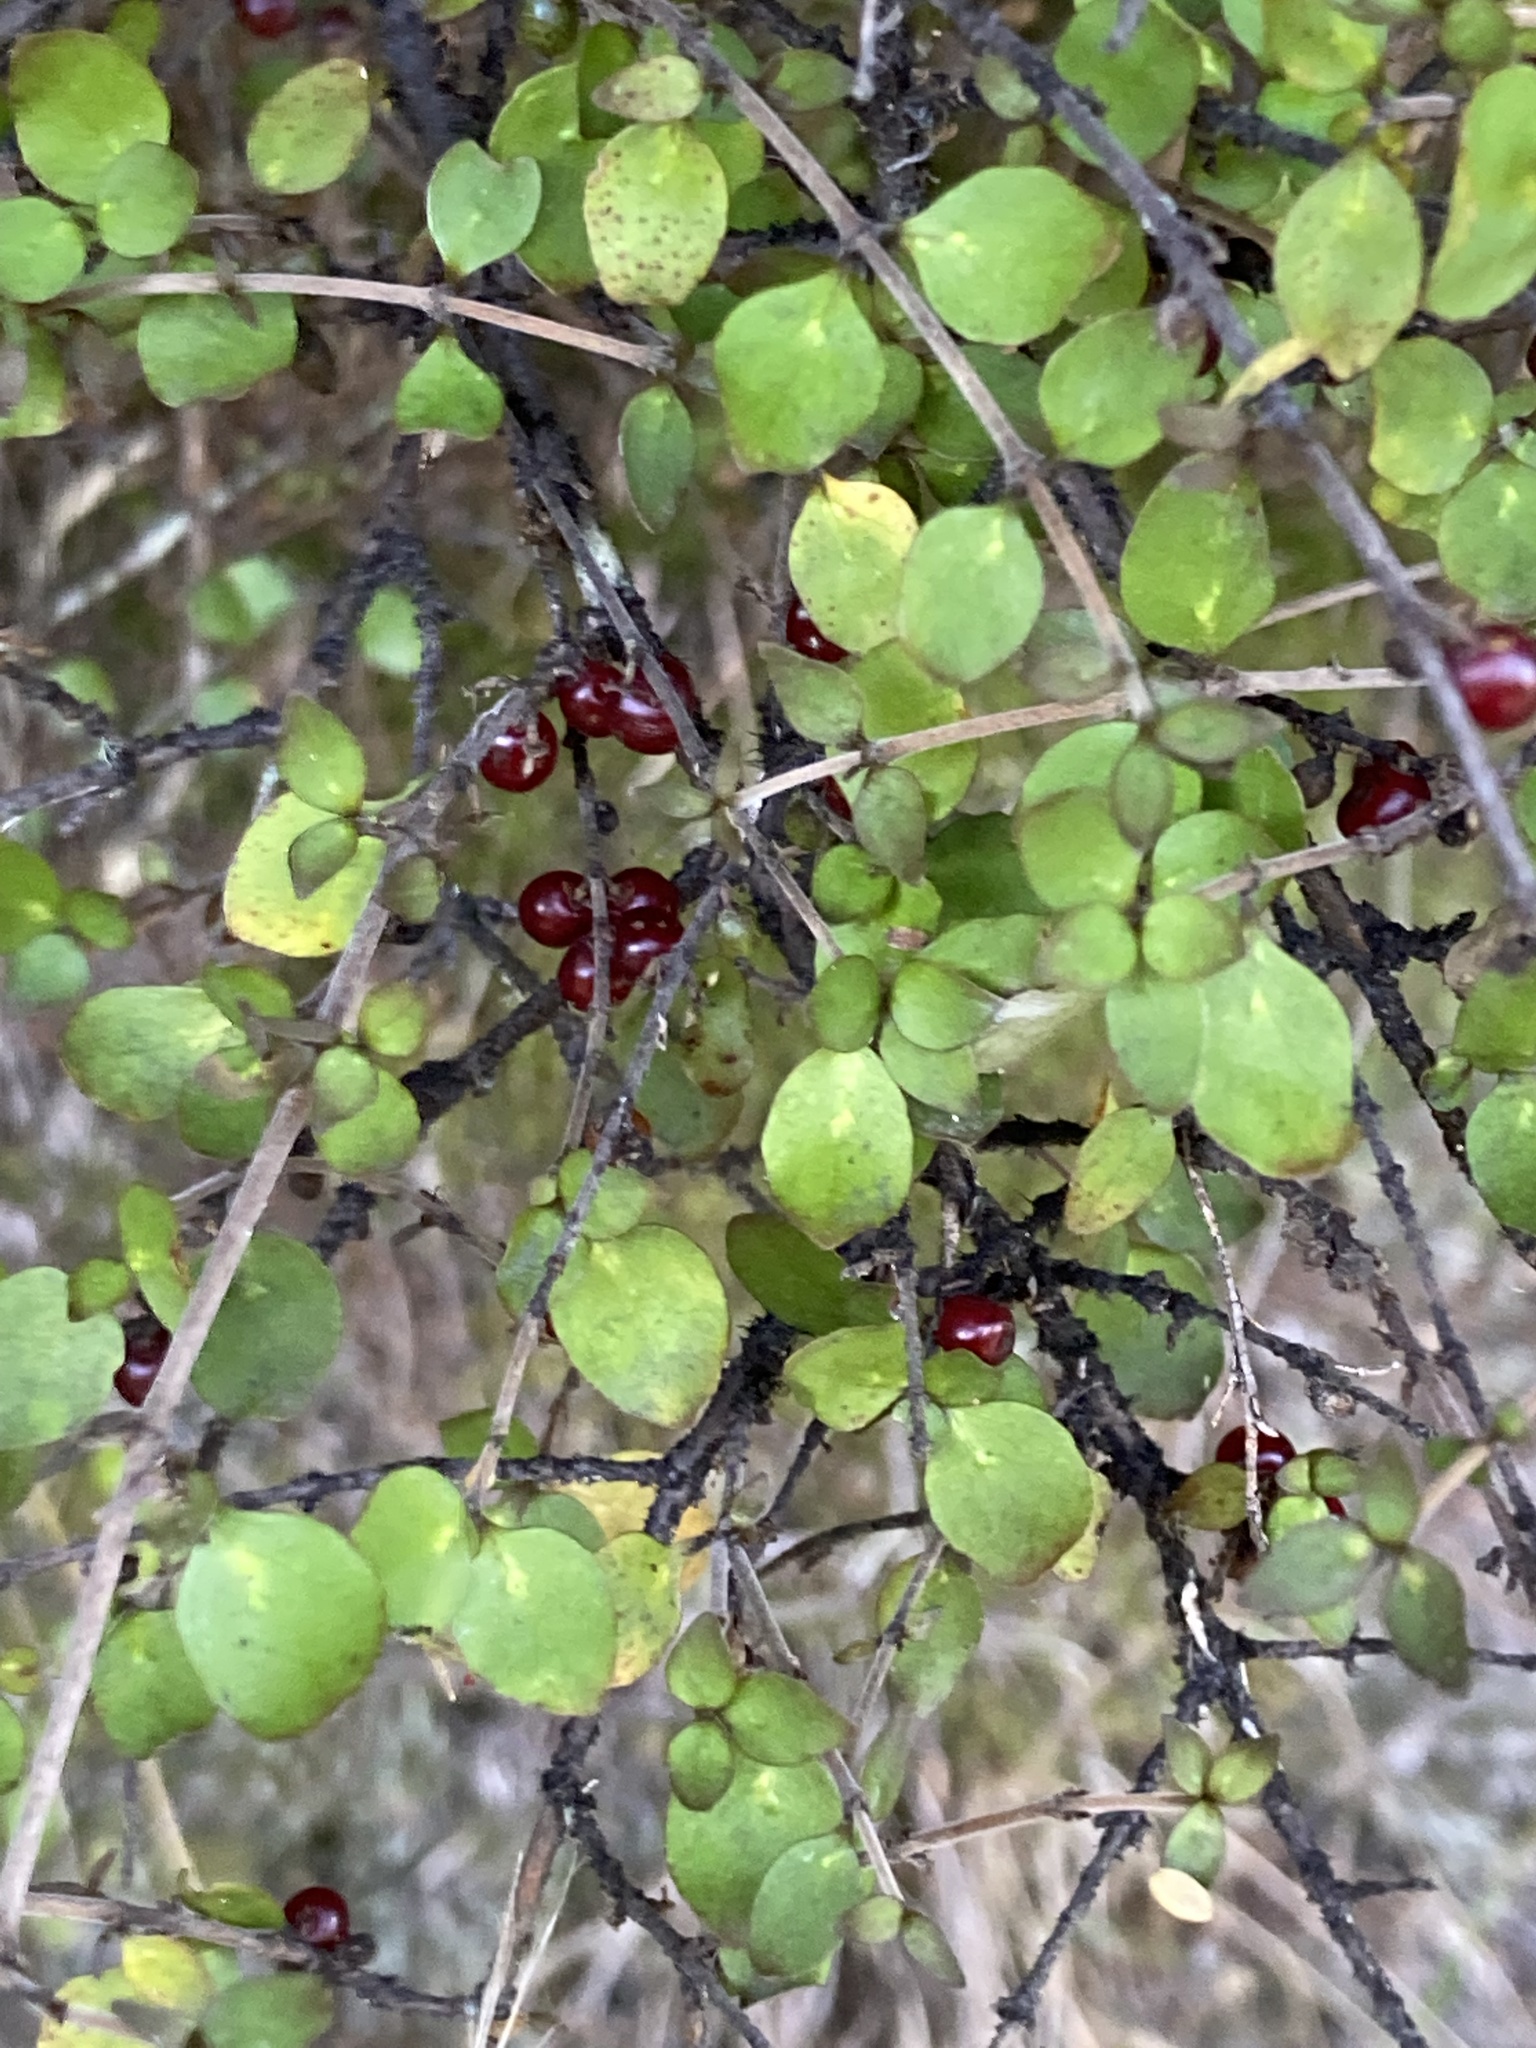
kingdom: Plantae
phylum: Tracheophyta
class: Magnoliopsida
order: Gentianales
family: Rubiaceae
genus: Coprosma
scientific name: Coprosma rhamnoides
